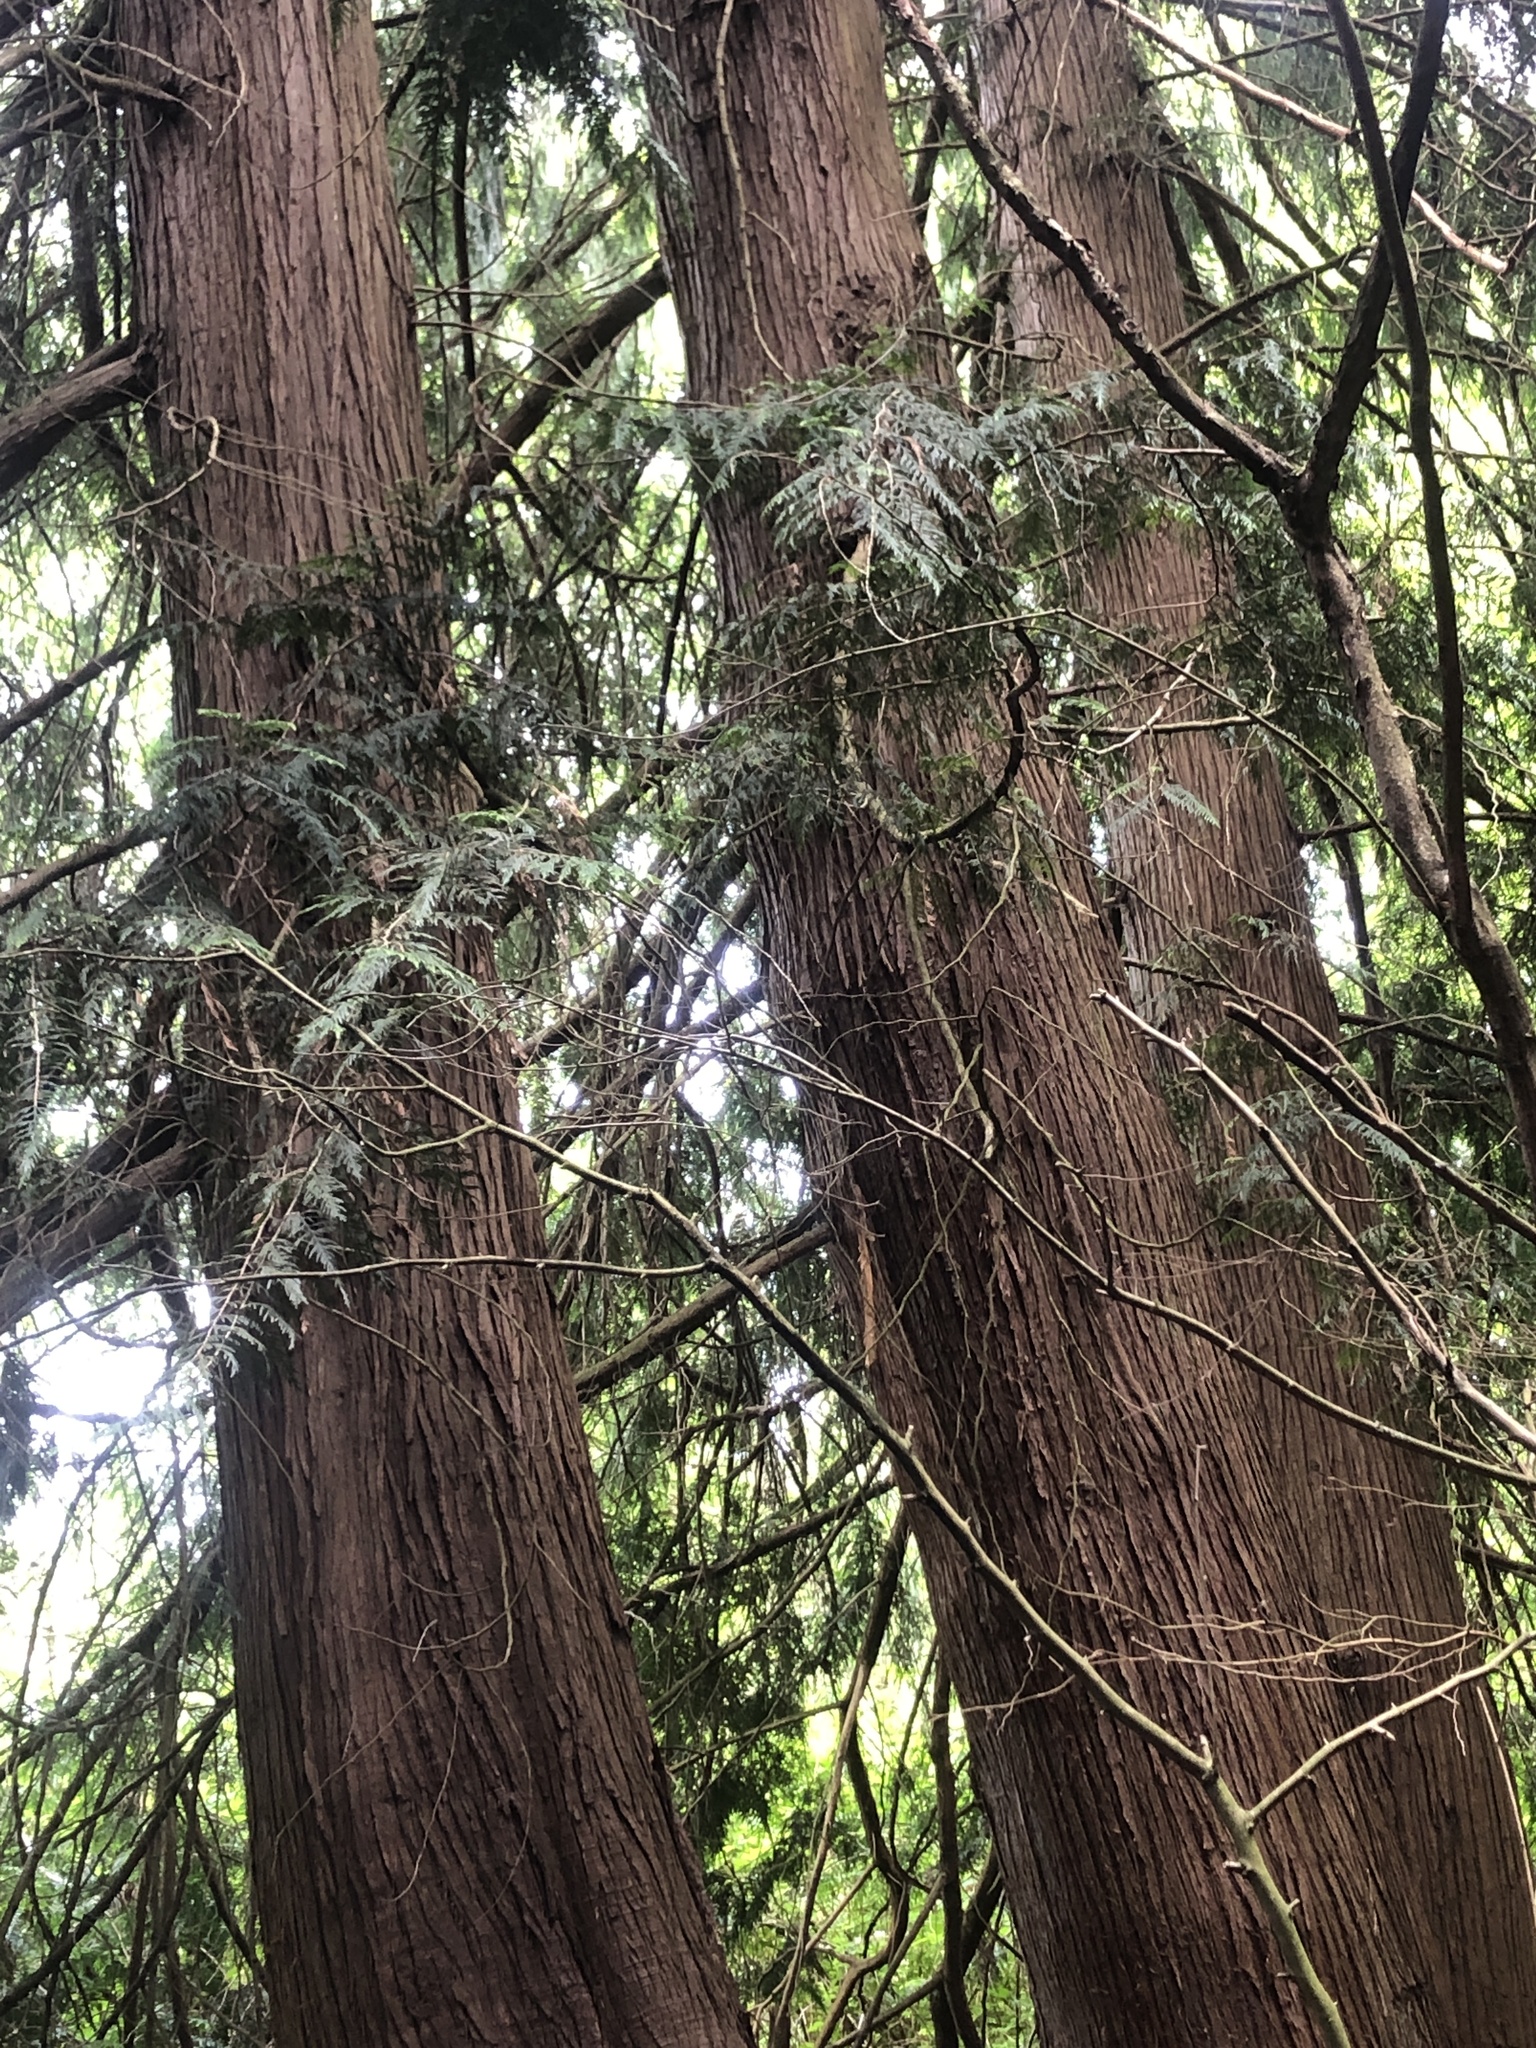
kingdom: Plantae
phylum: Tracheophyta
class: Pinopsida
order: Pinales
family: Cupressaceae
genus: Thuja
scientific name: Thuja plicata
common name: Western red-cedar
